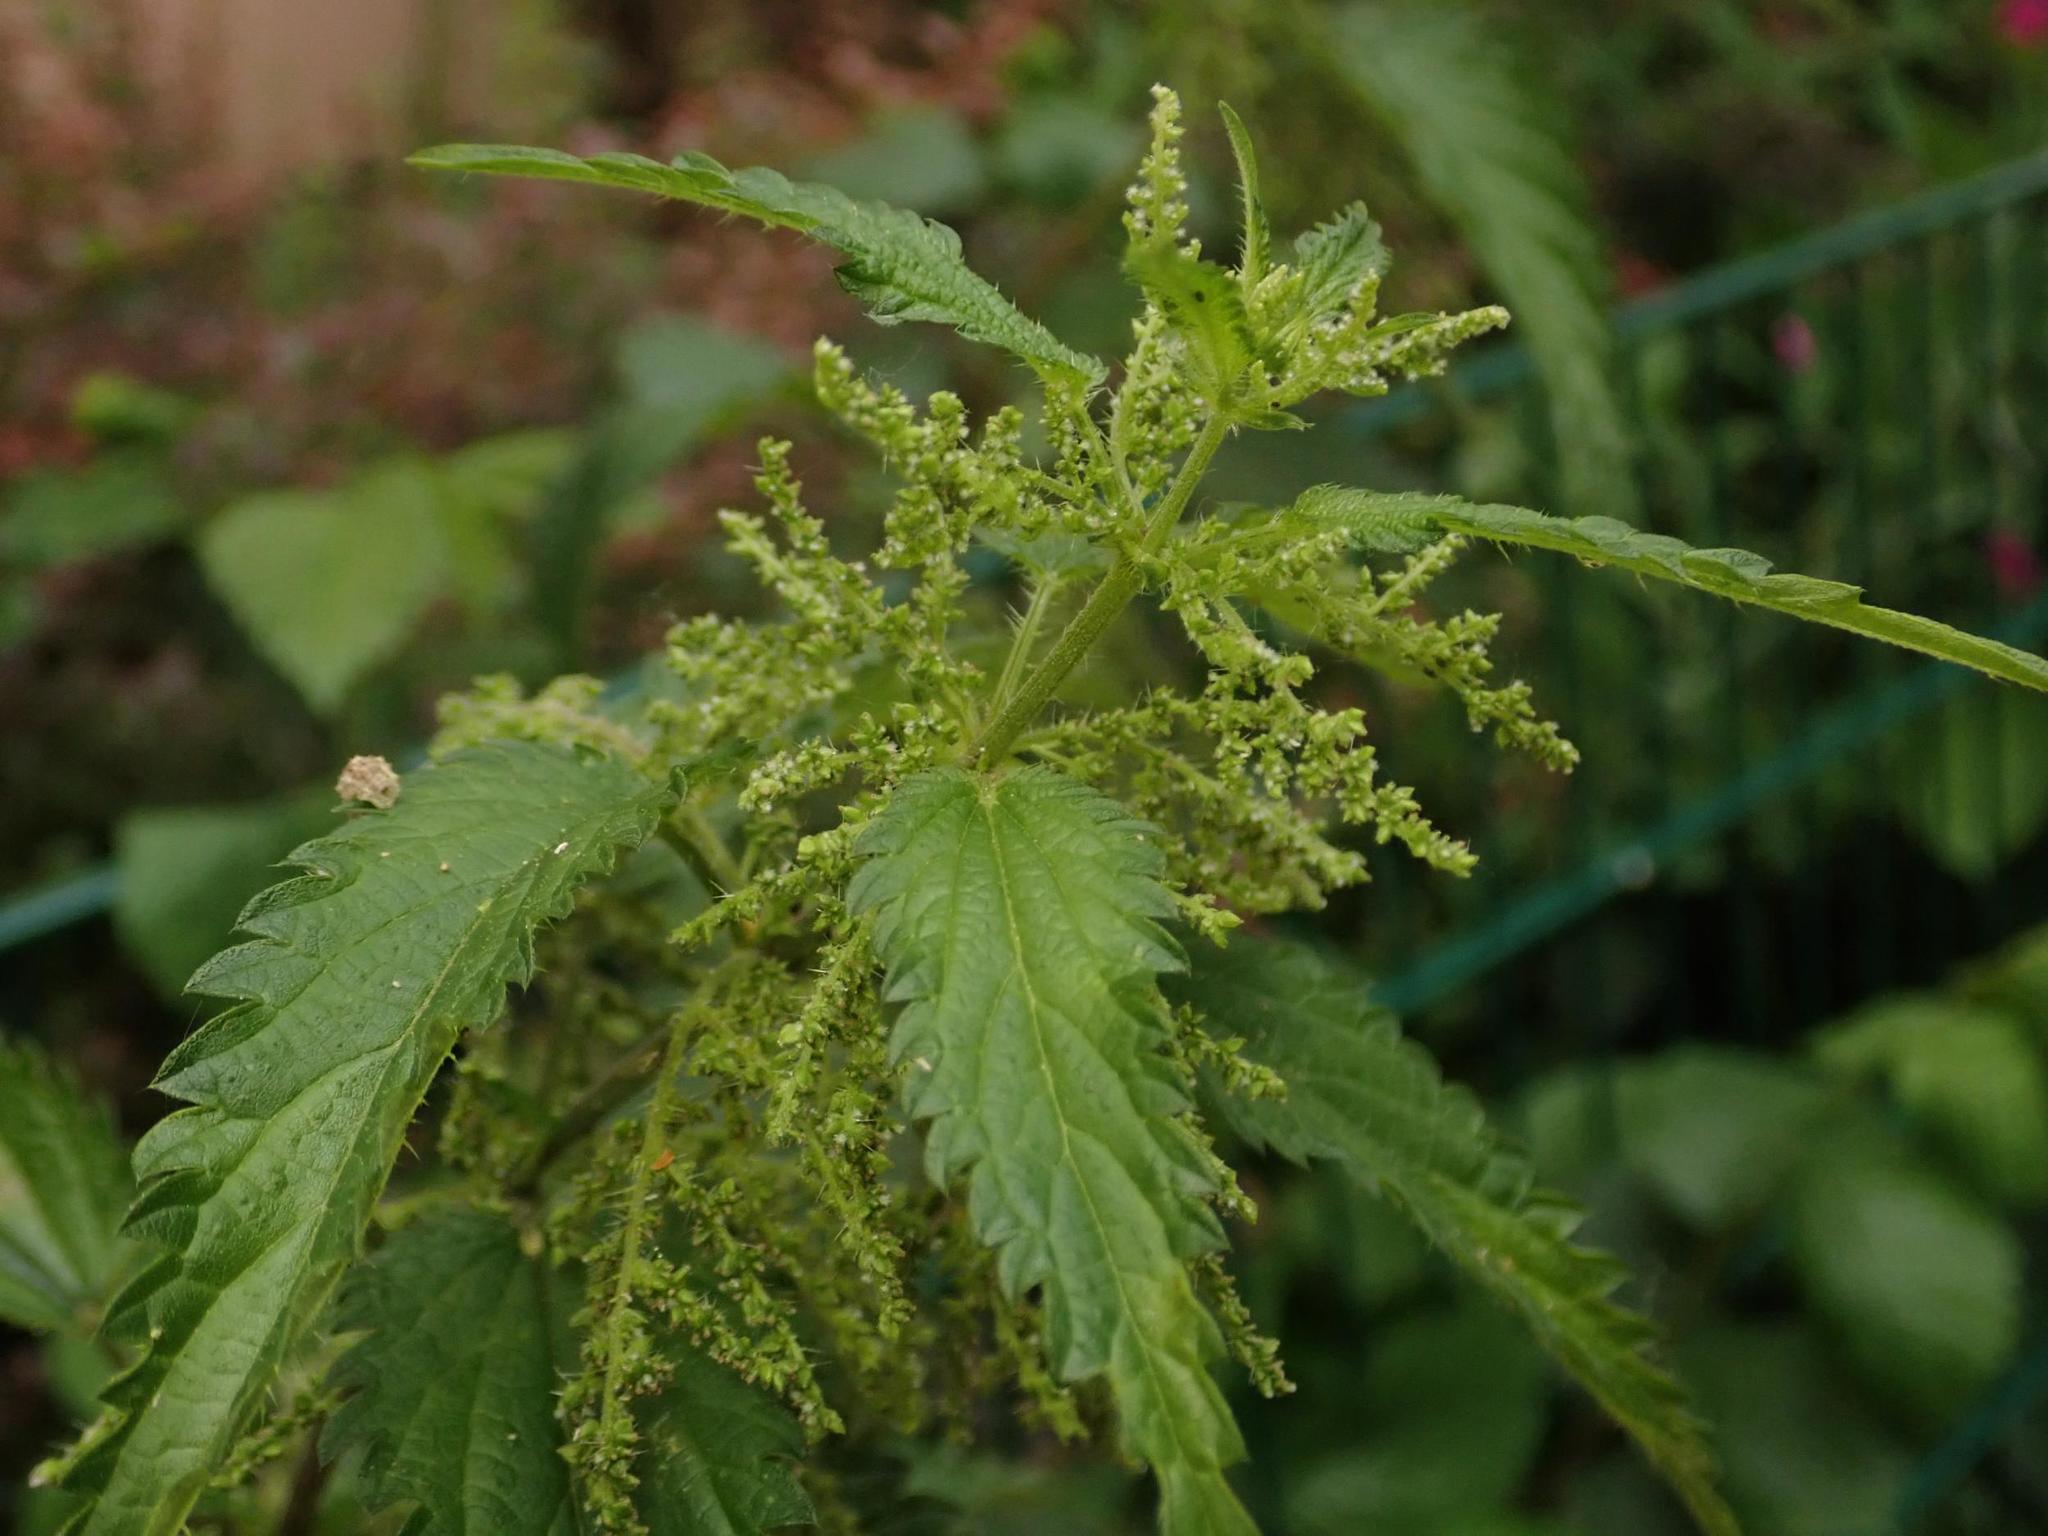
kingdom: Plantae
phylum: Tracheophyta
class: Magnoliopsida
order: Rosales
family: Urticaceae
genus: Urtica
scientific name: Urtica dioica
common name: Common nettle
